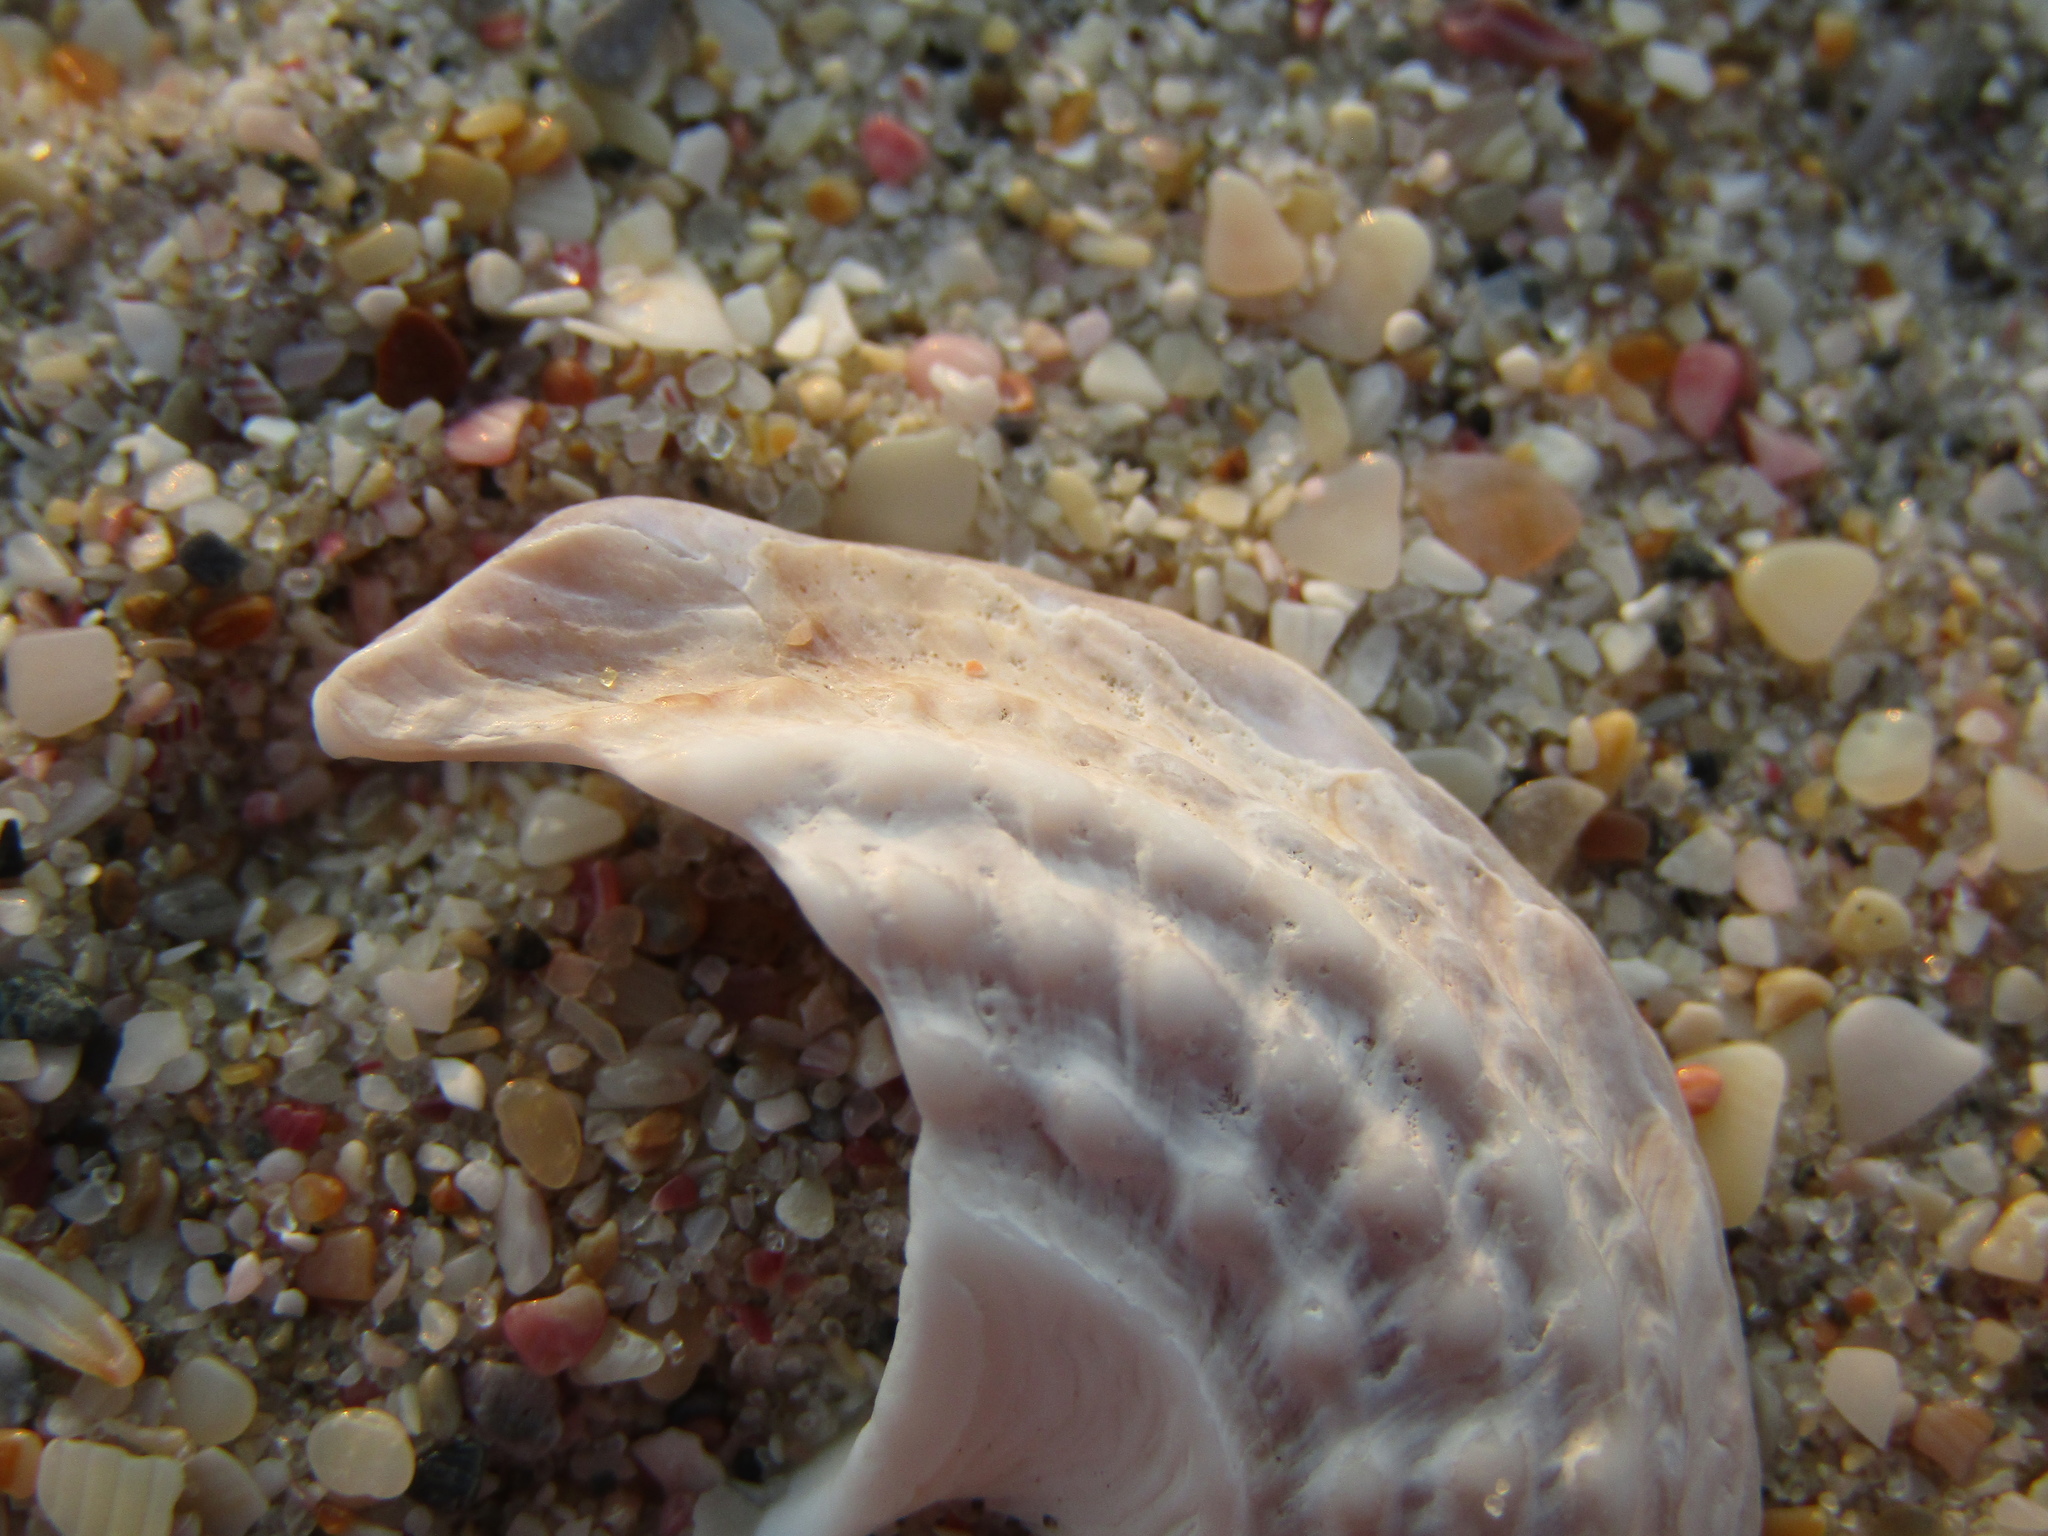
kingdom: Animalia
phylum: Mollusca
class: Gastropoda
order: Trochida
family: Turbinidae
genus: Astraea
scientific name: Astraea heliotropium
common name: Sun shell
